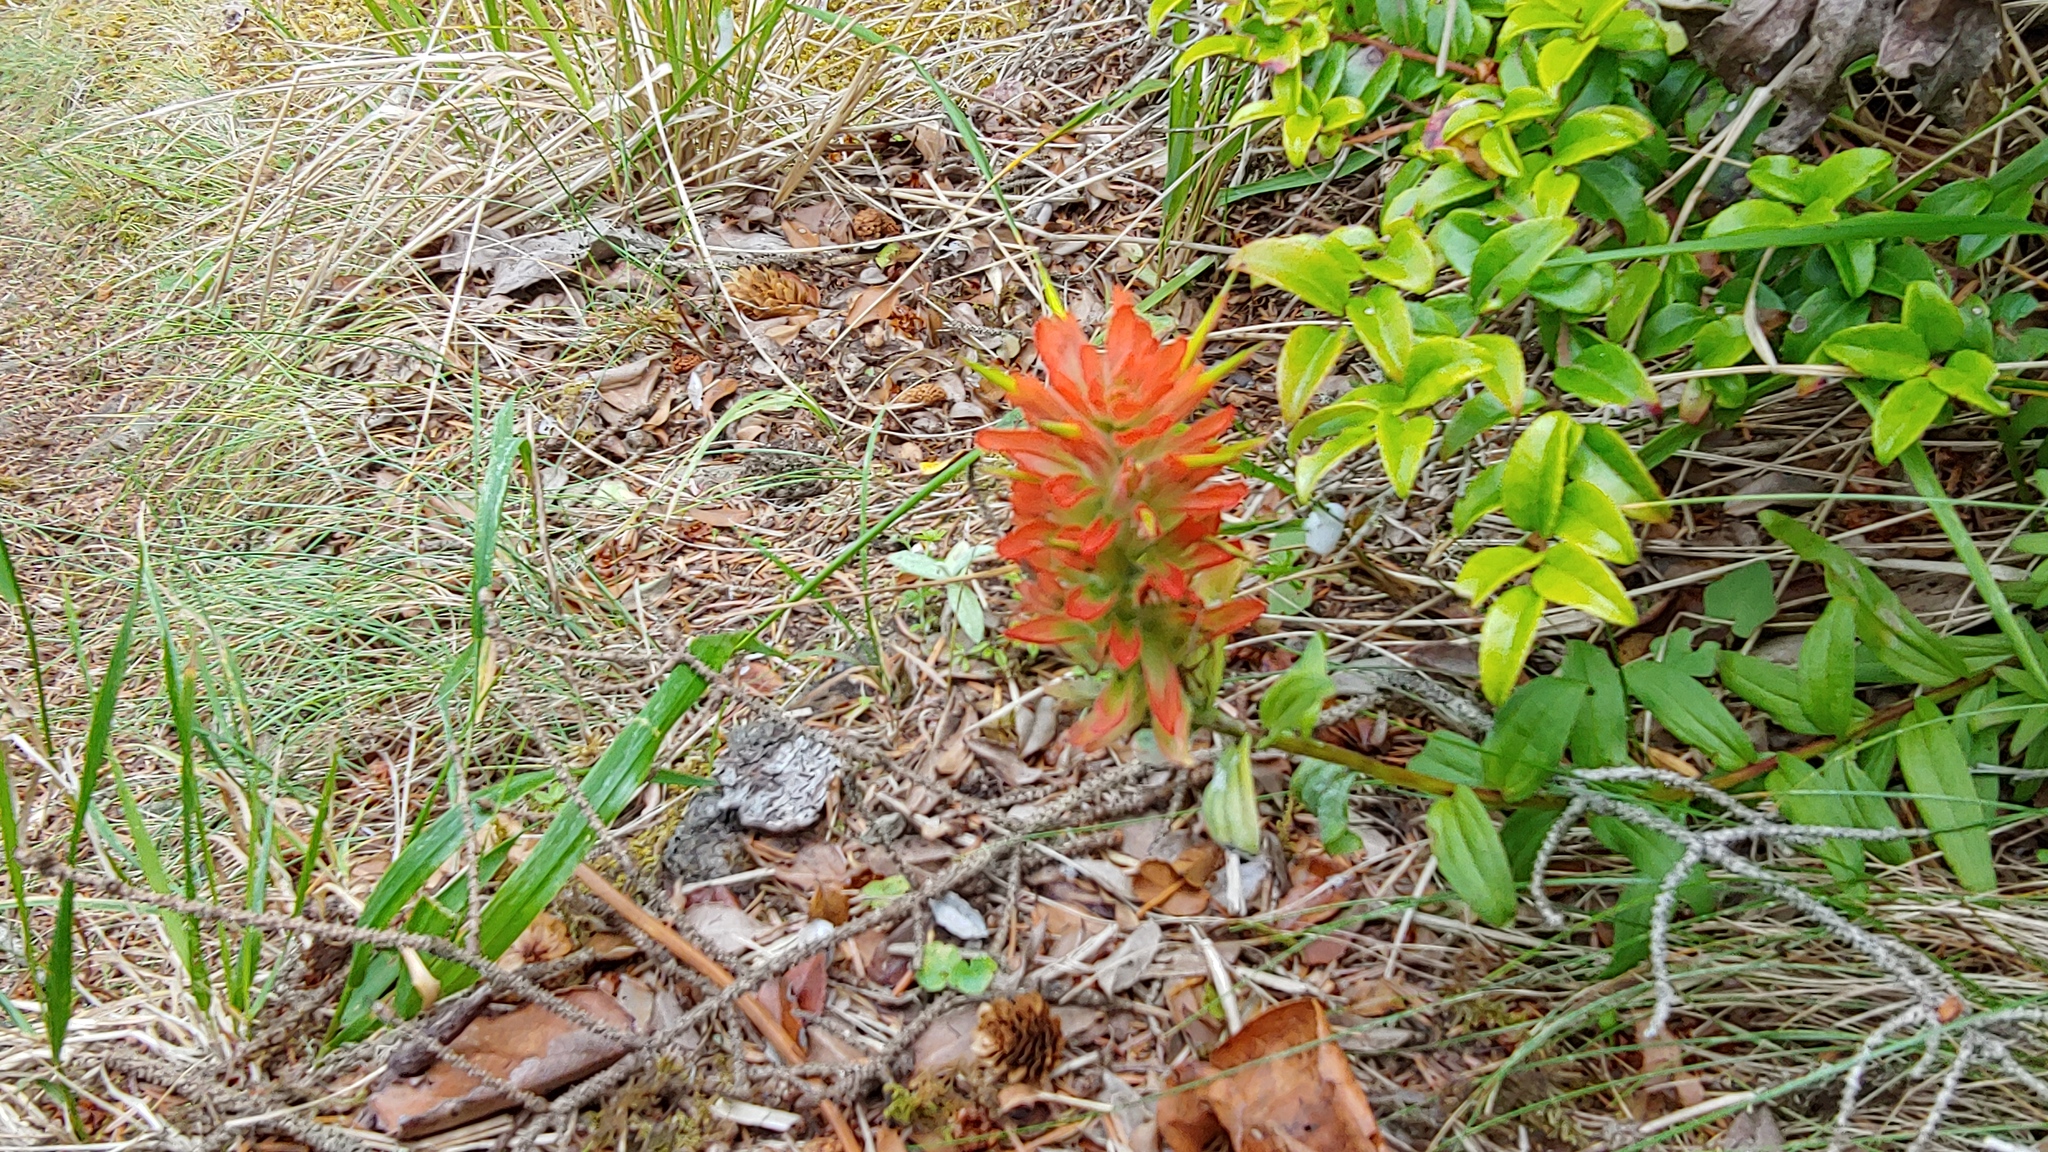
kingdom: Plantae
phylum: Tracheophyta
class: Magnoliopsida
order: Lamiales
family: Orobanchaceae
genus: Castilleja
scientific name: Castilleja miniata
